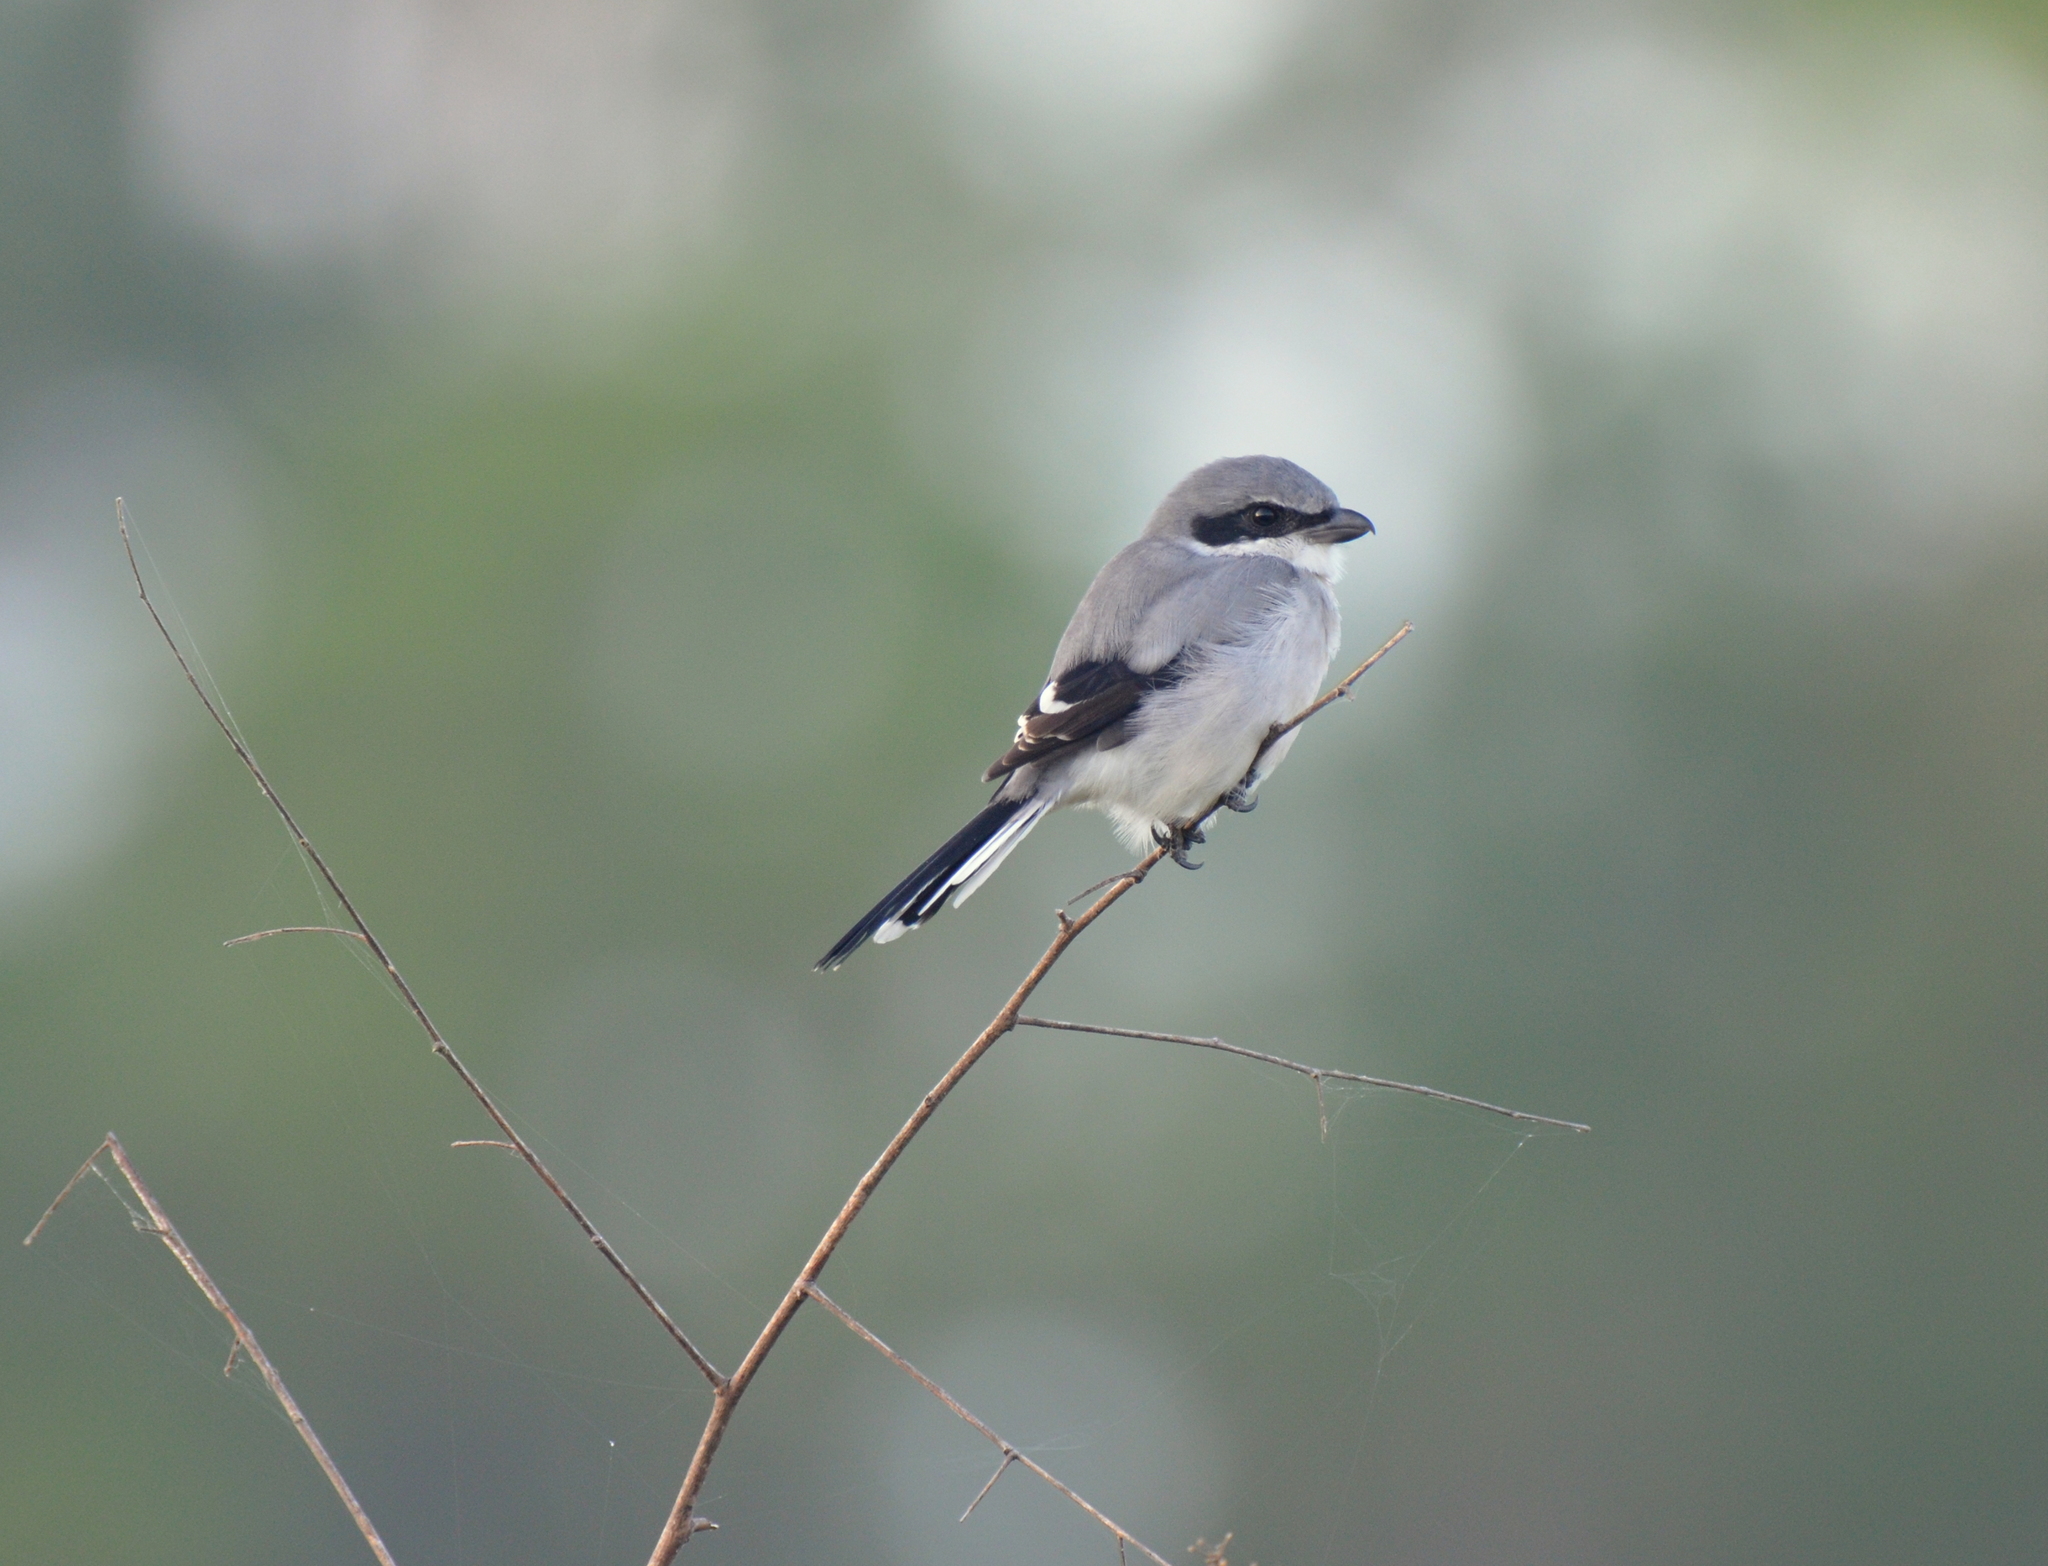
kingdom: Animalia
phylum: Chordata
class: Aves
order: Passeriformes
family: Laniidae
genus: Lanius
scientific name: Lanius ludovicianus
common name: Loggerhead shrike
